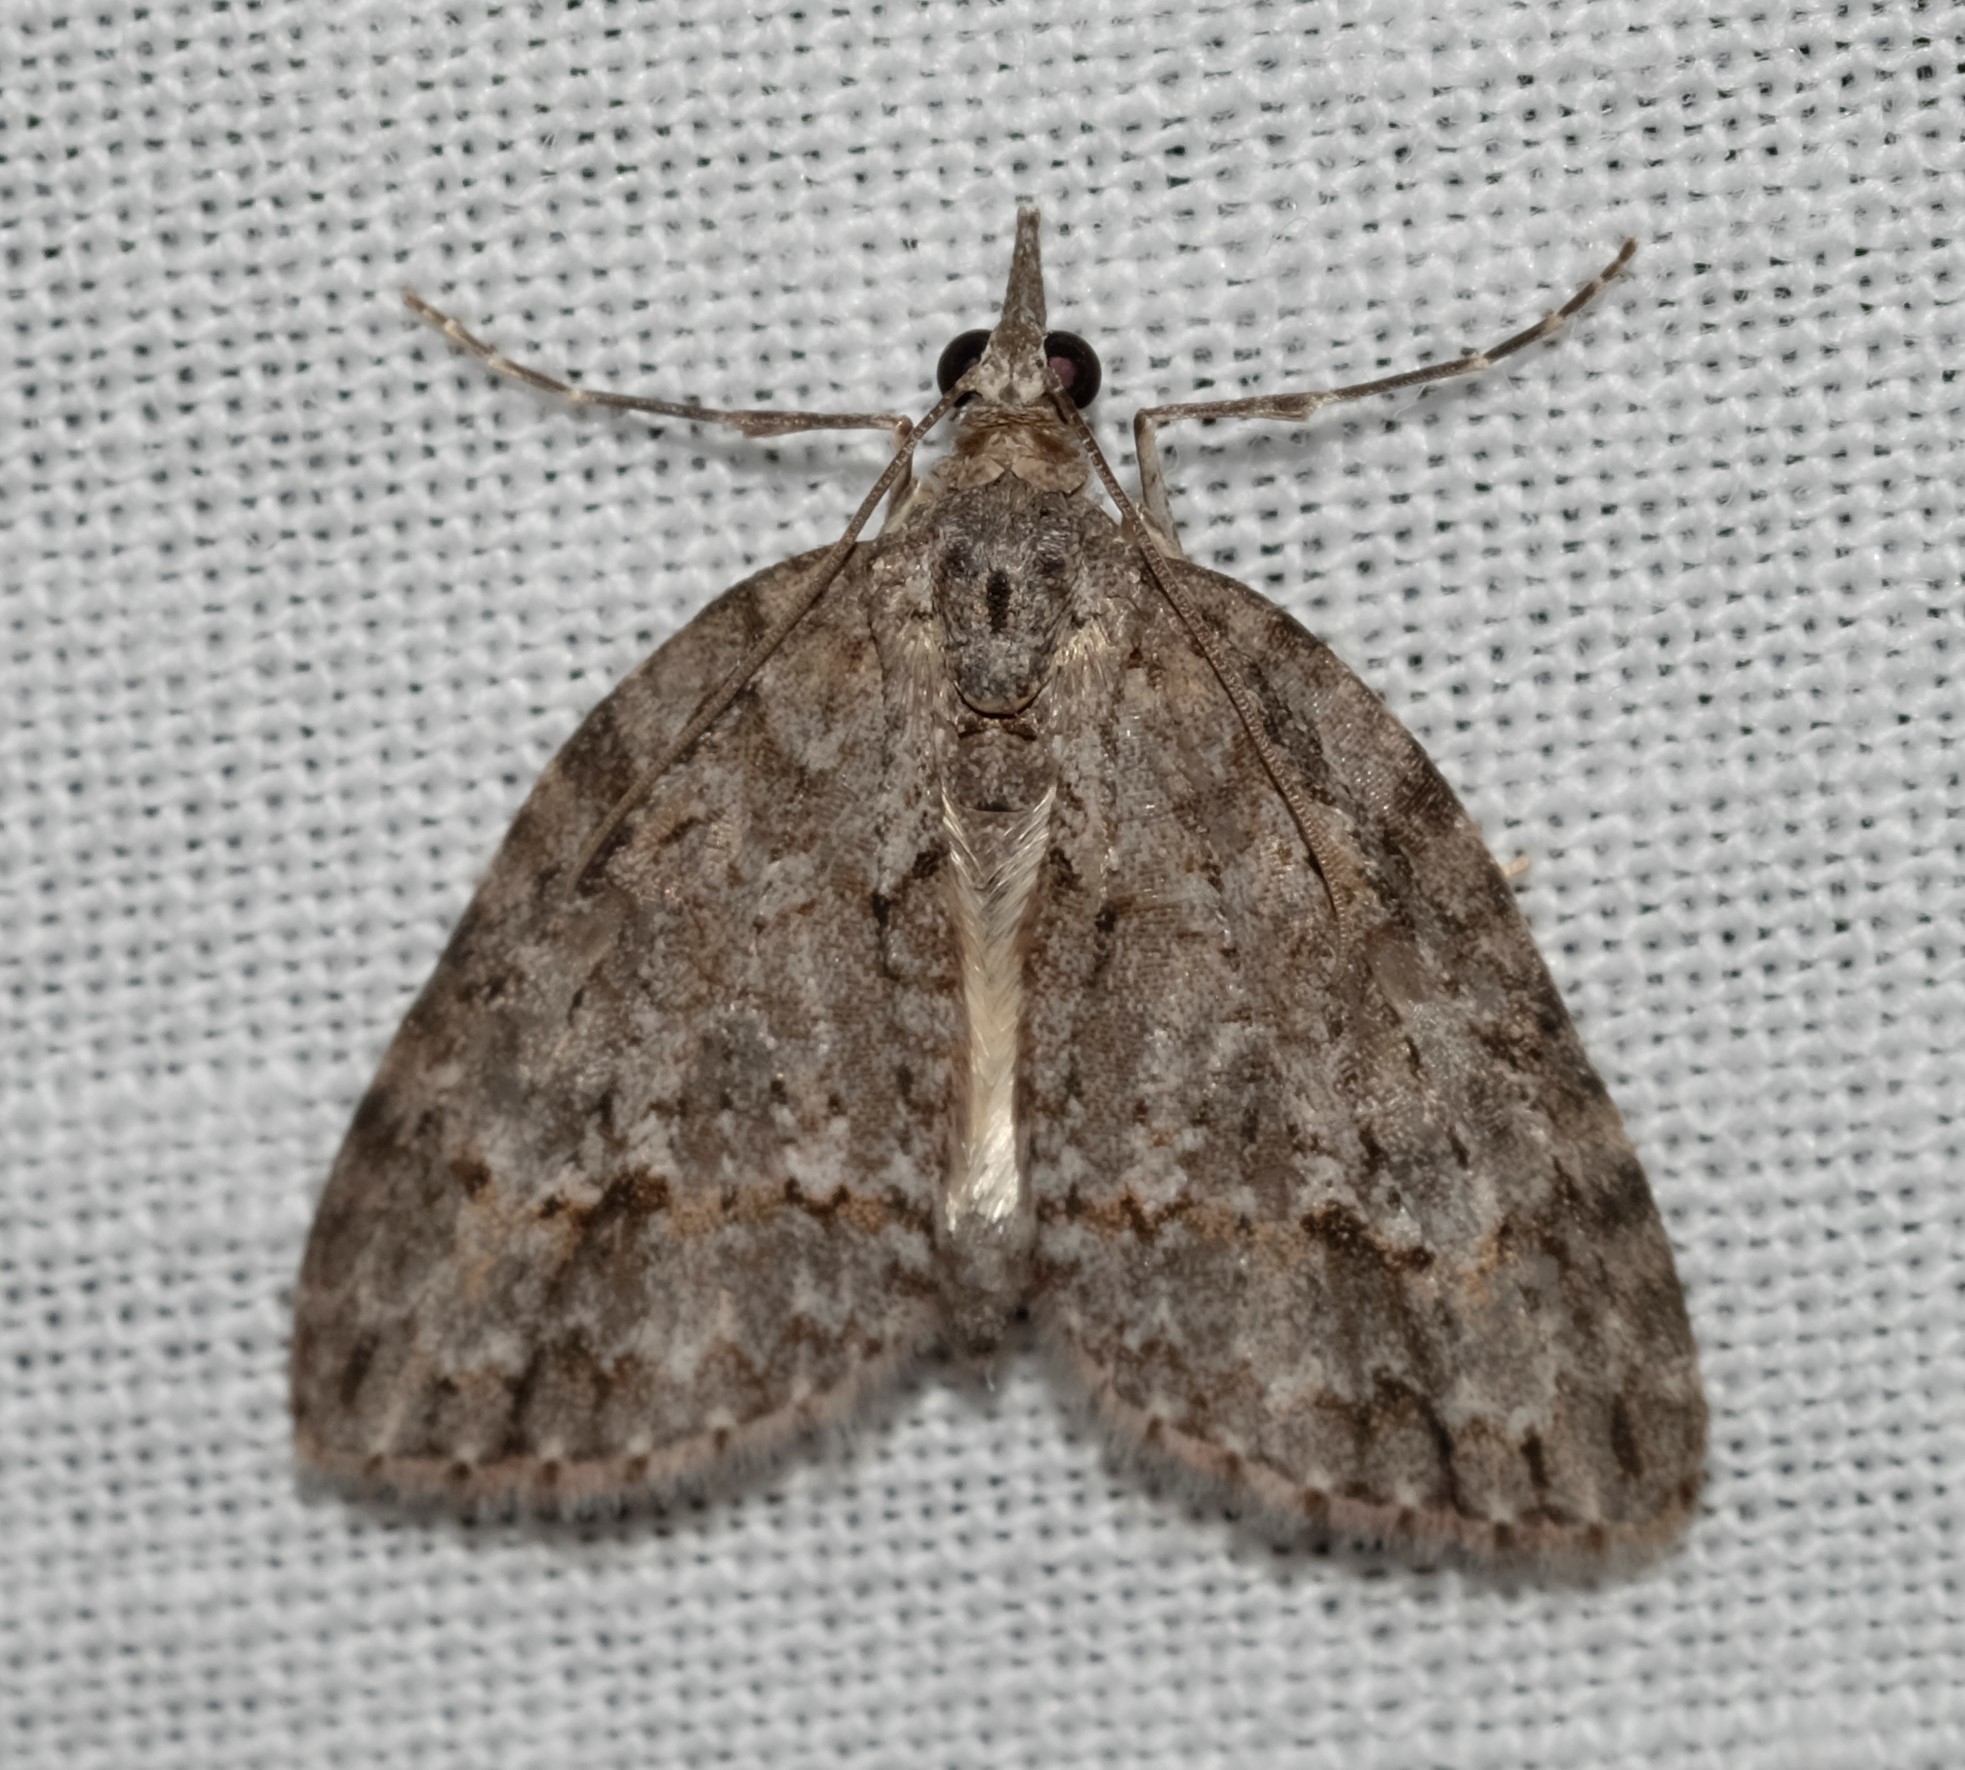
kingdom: Animalia
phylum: Arthropoda
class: Insecta
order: Lepidoptera
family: Geometridae
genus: Microdes
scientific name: Microdes villosata
